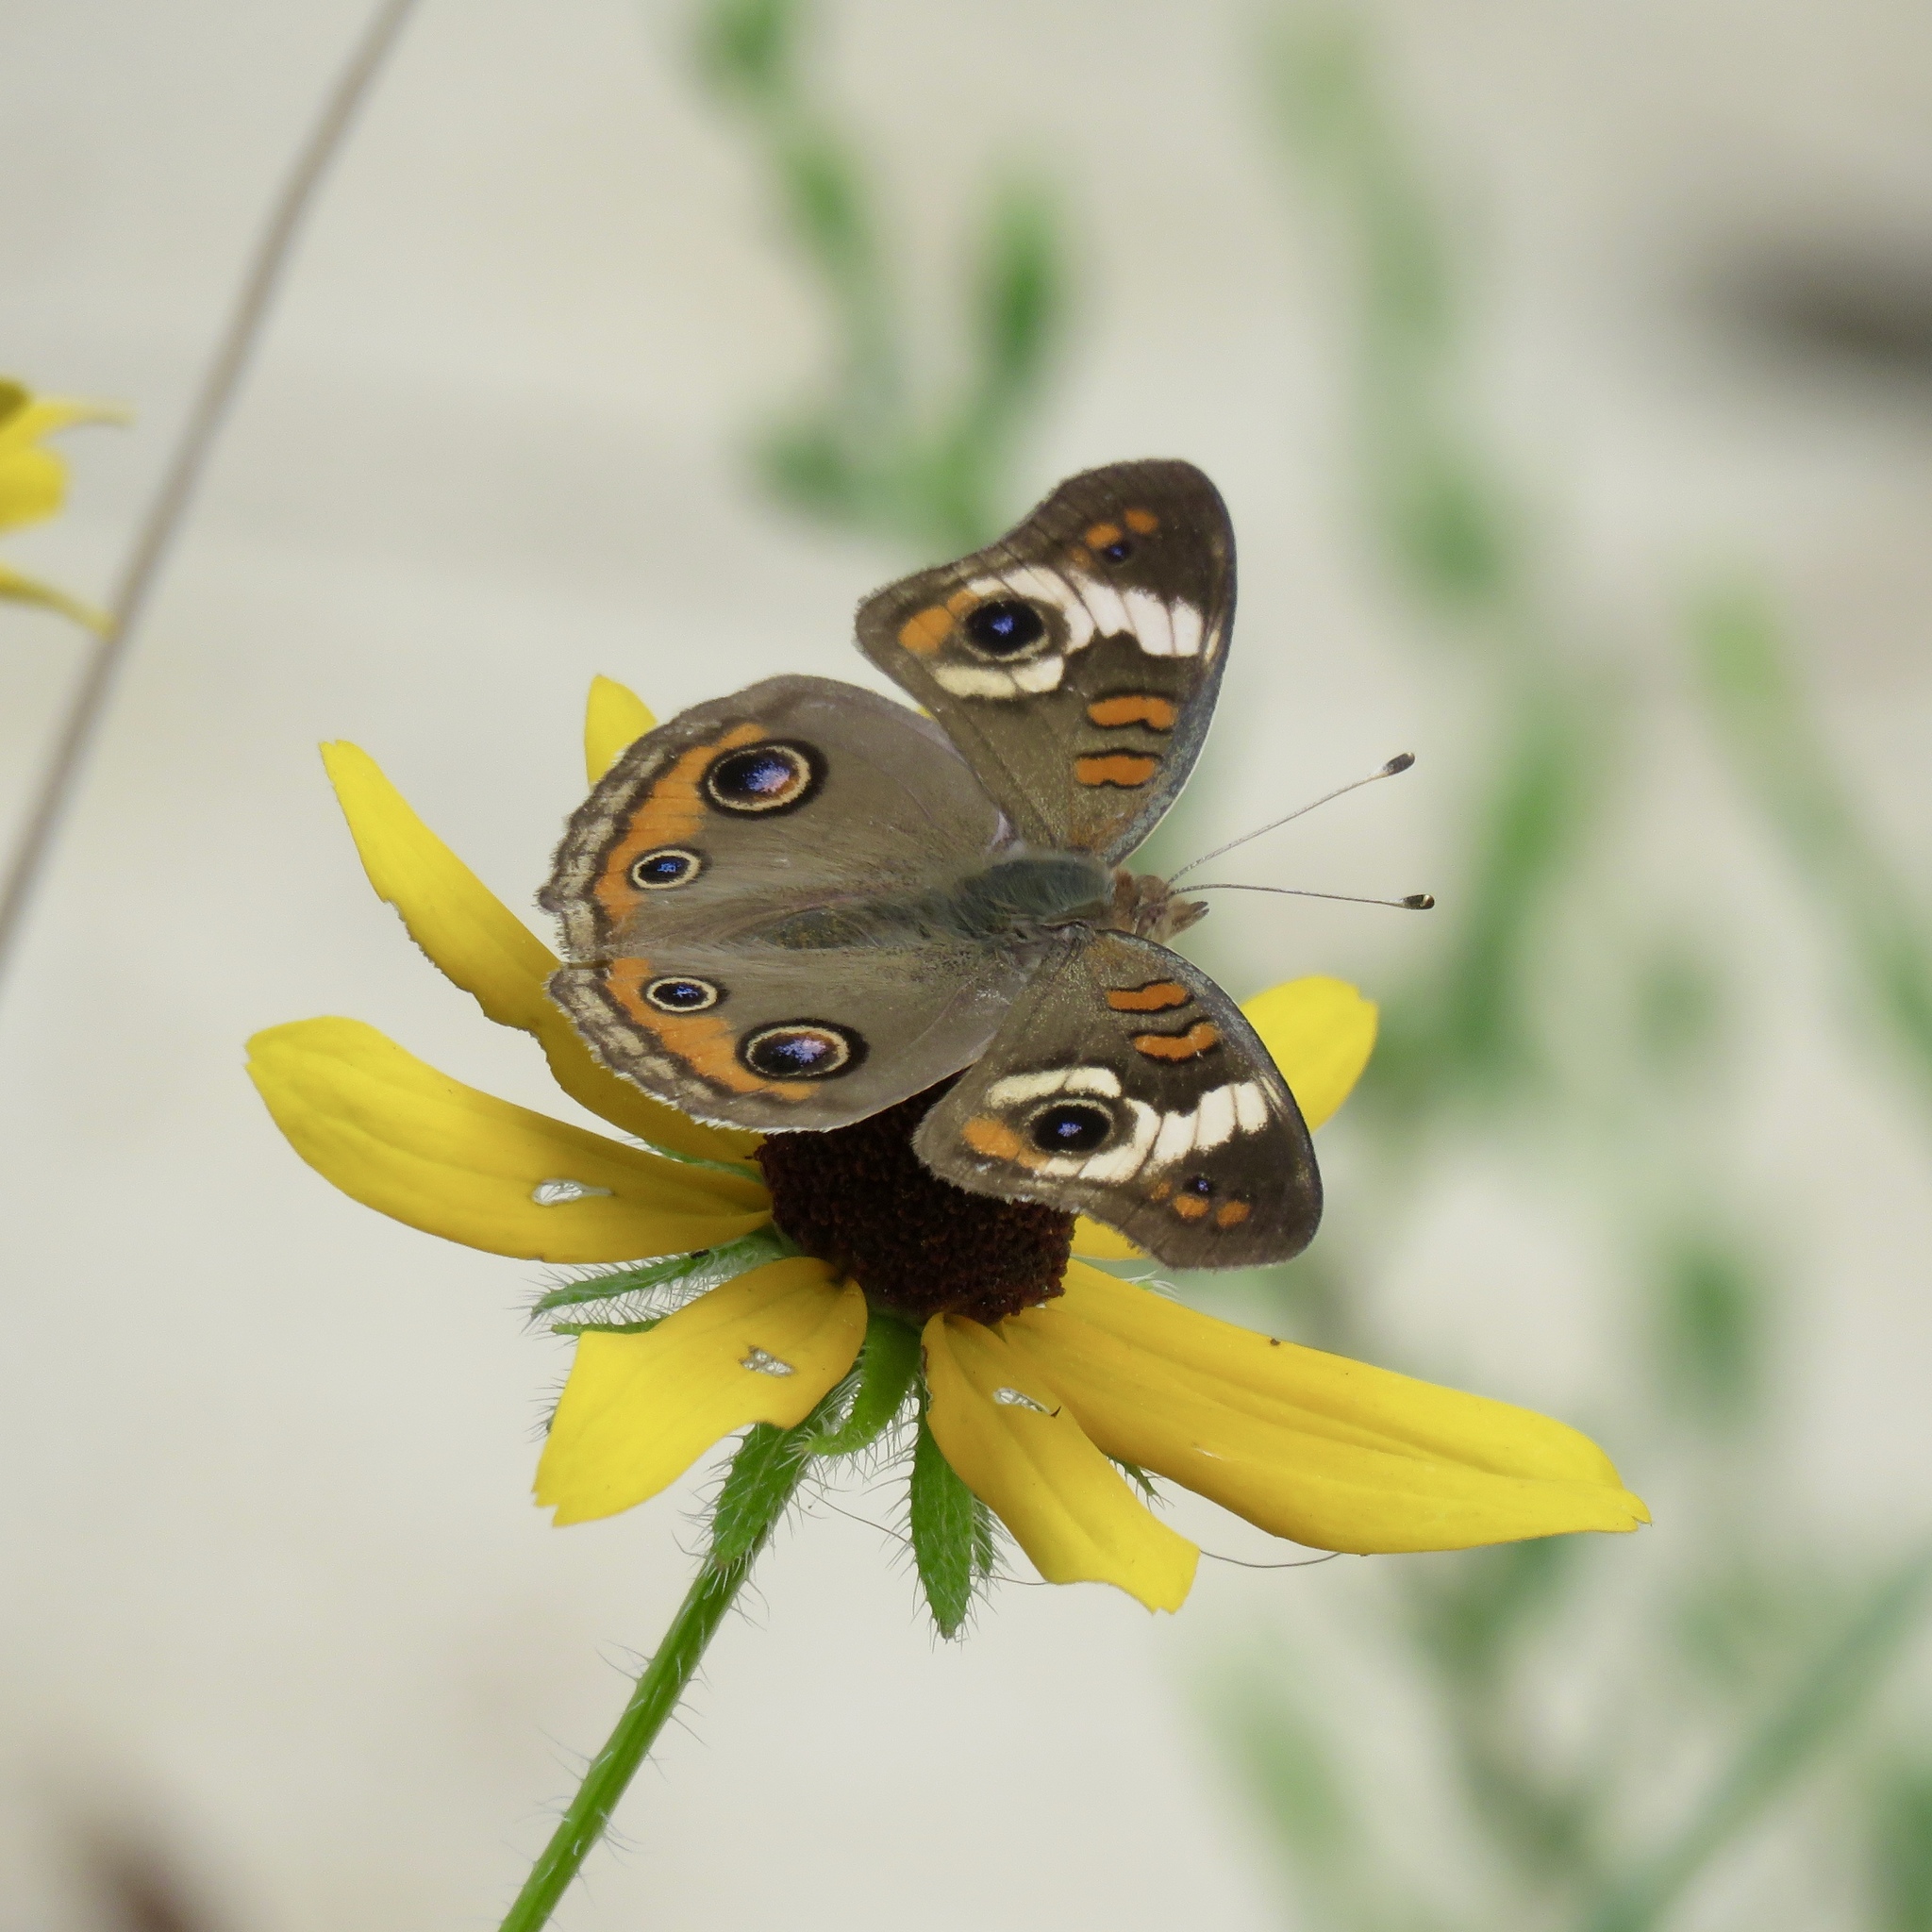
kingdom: Animalia
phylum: Arthropoda
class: Insecta
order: Lepidoptera
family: Nymphalidae
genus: Junonia
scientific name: Junonia coenia
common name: Common buckeye
